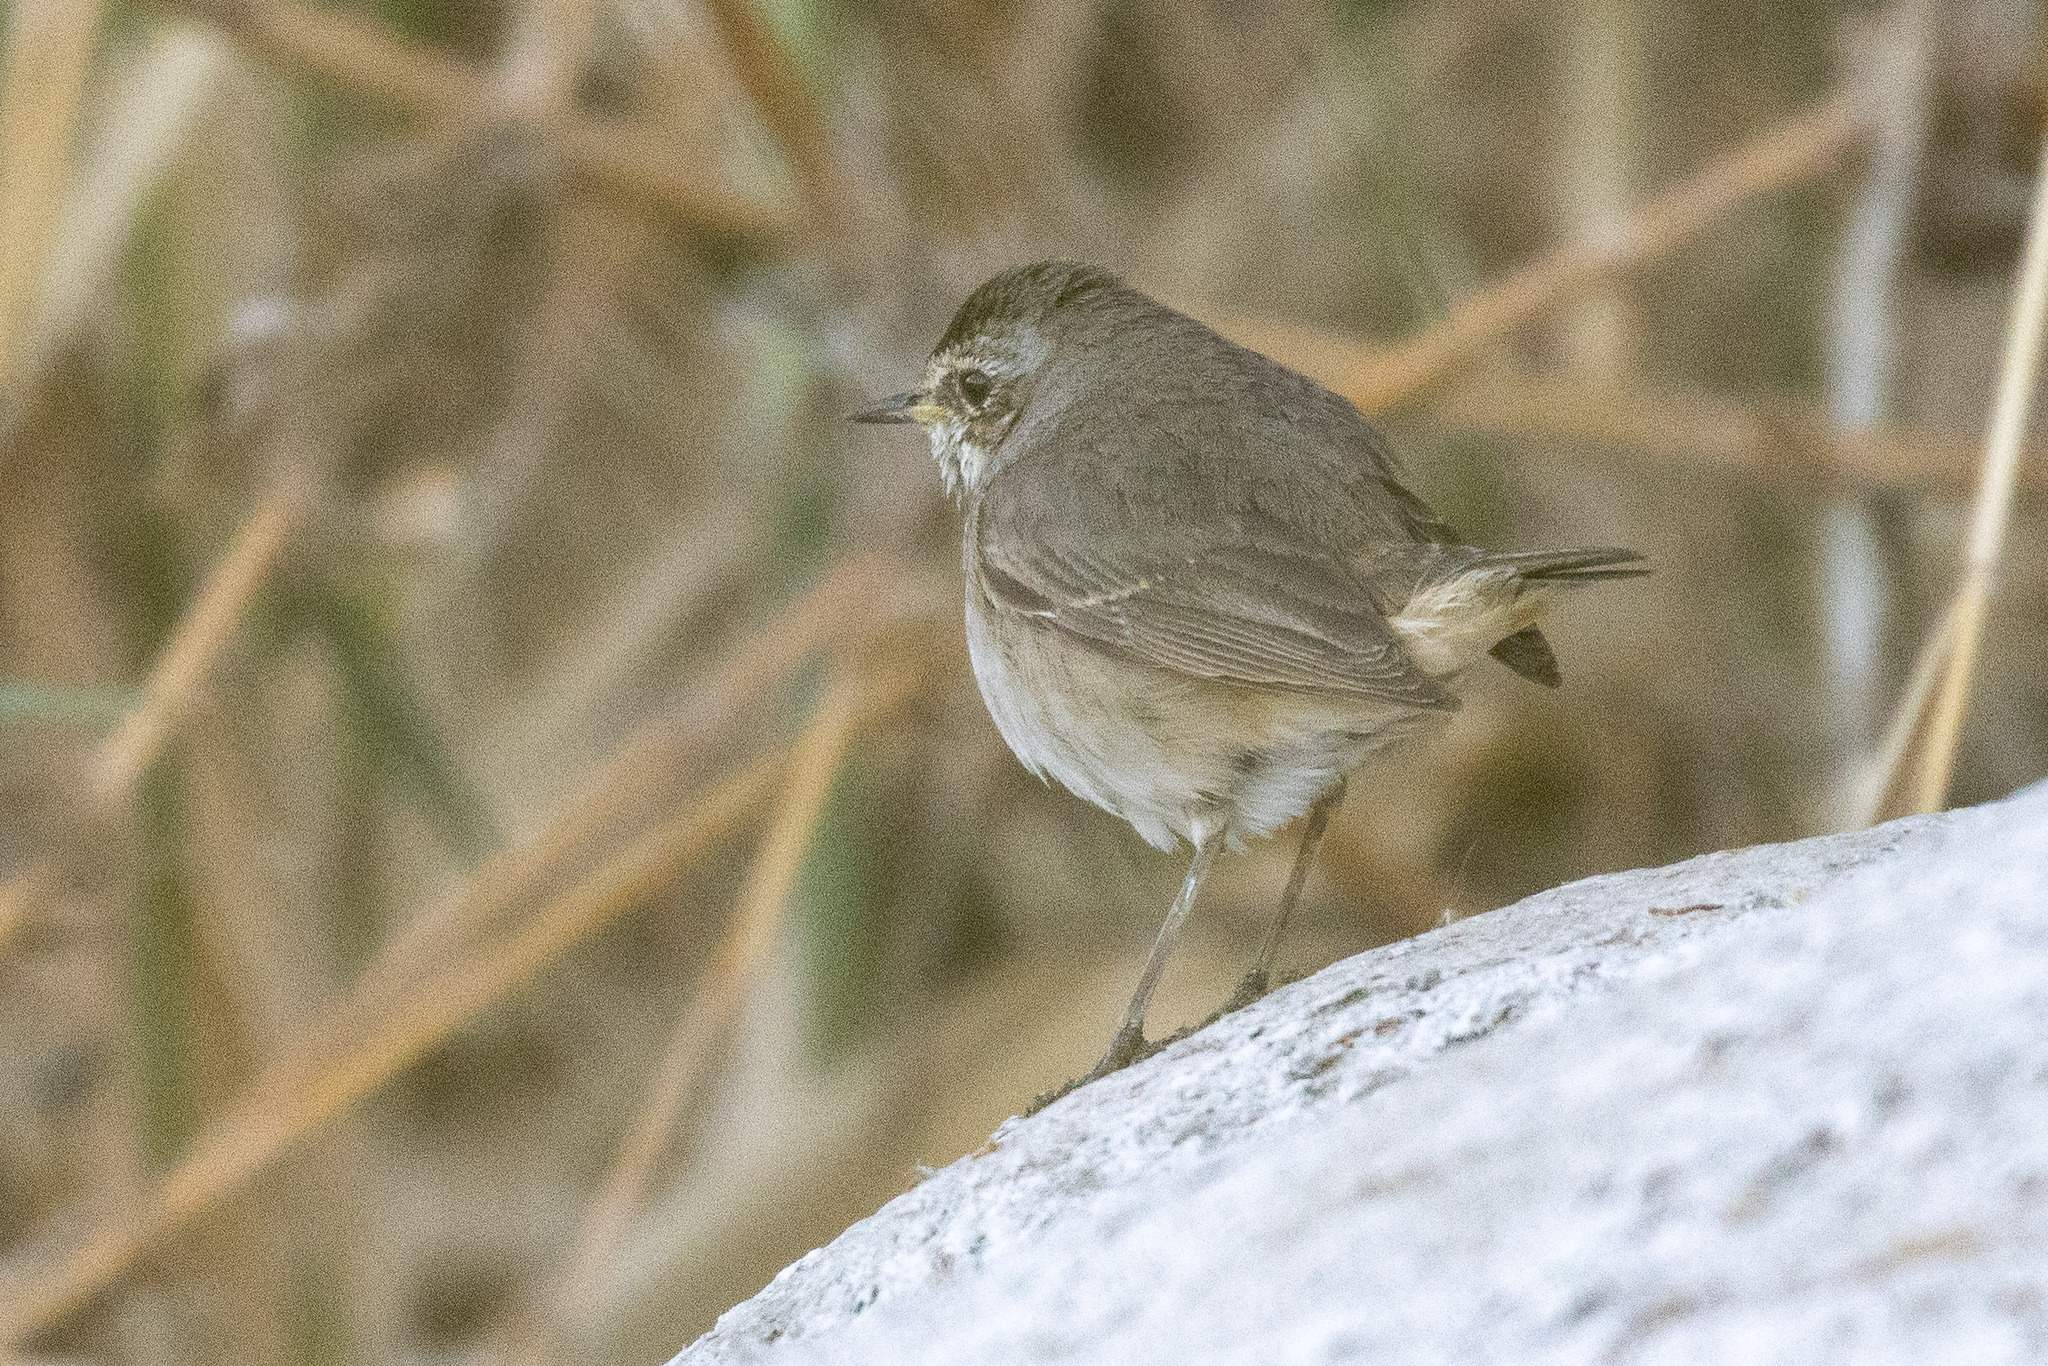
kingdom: Animalia
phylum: Chordata
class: Aves
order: Passeriformes
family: Muscicapidae
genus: Luscinia
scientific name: Luscinia svecica
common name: Bluethroat
